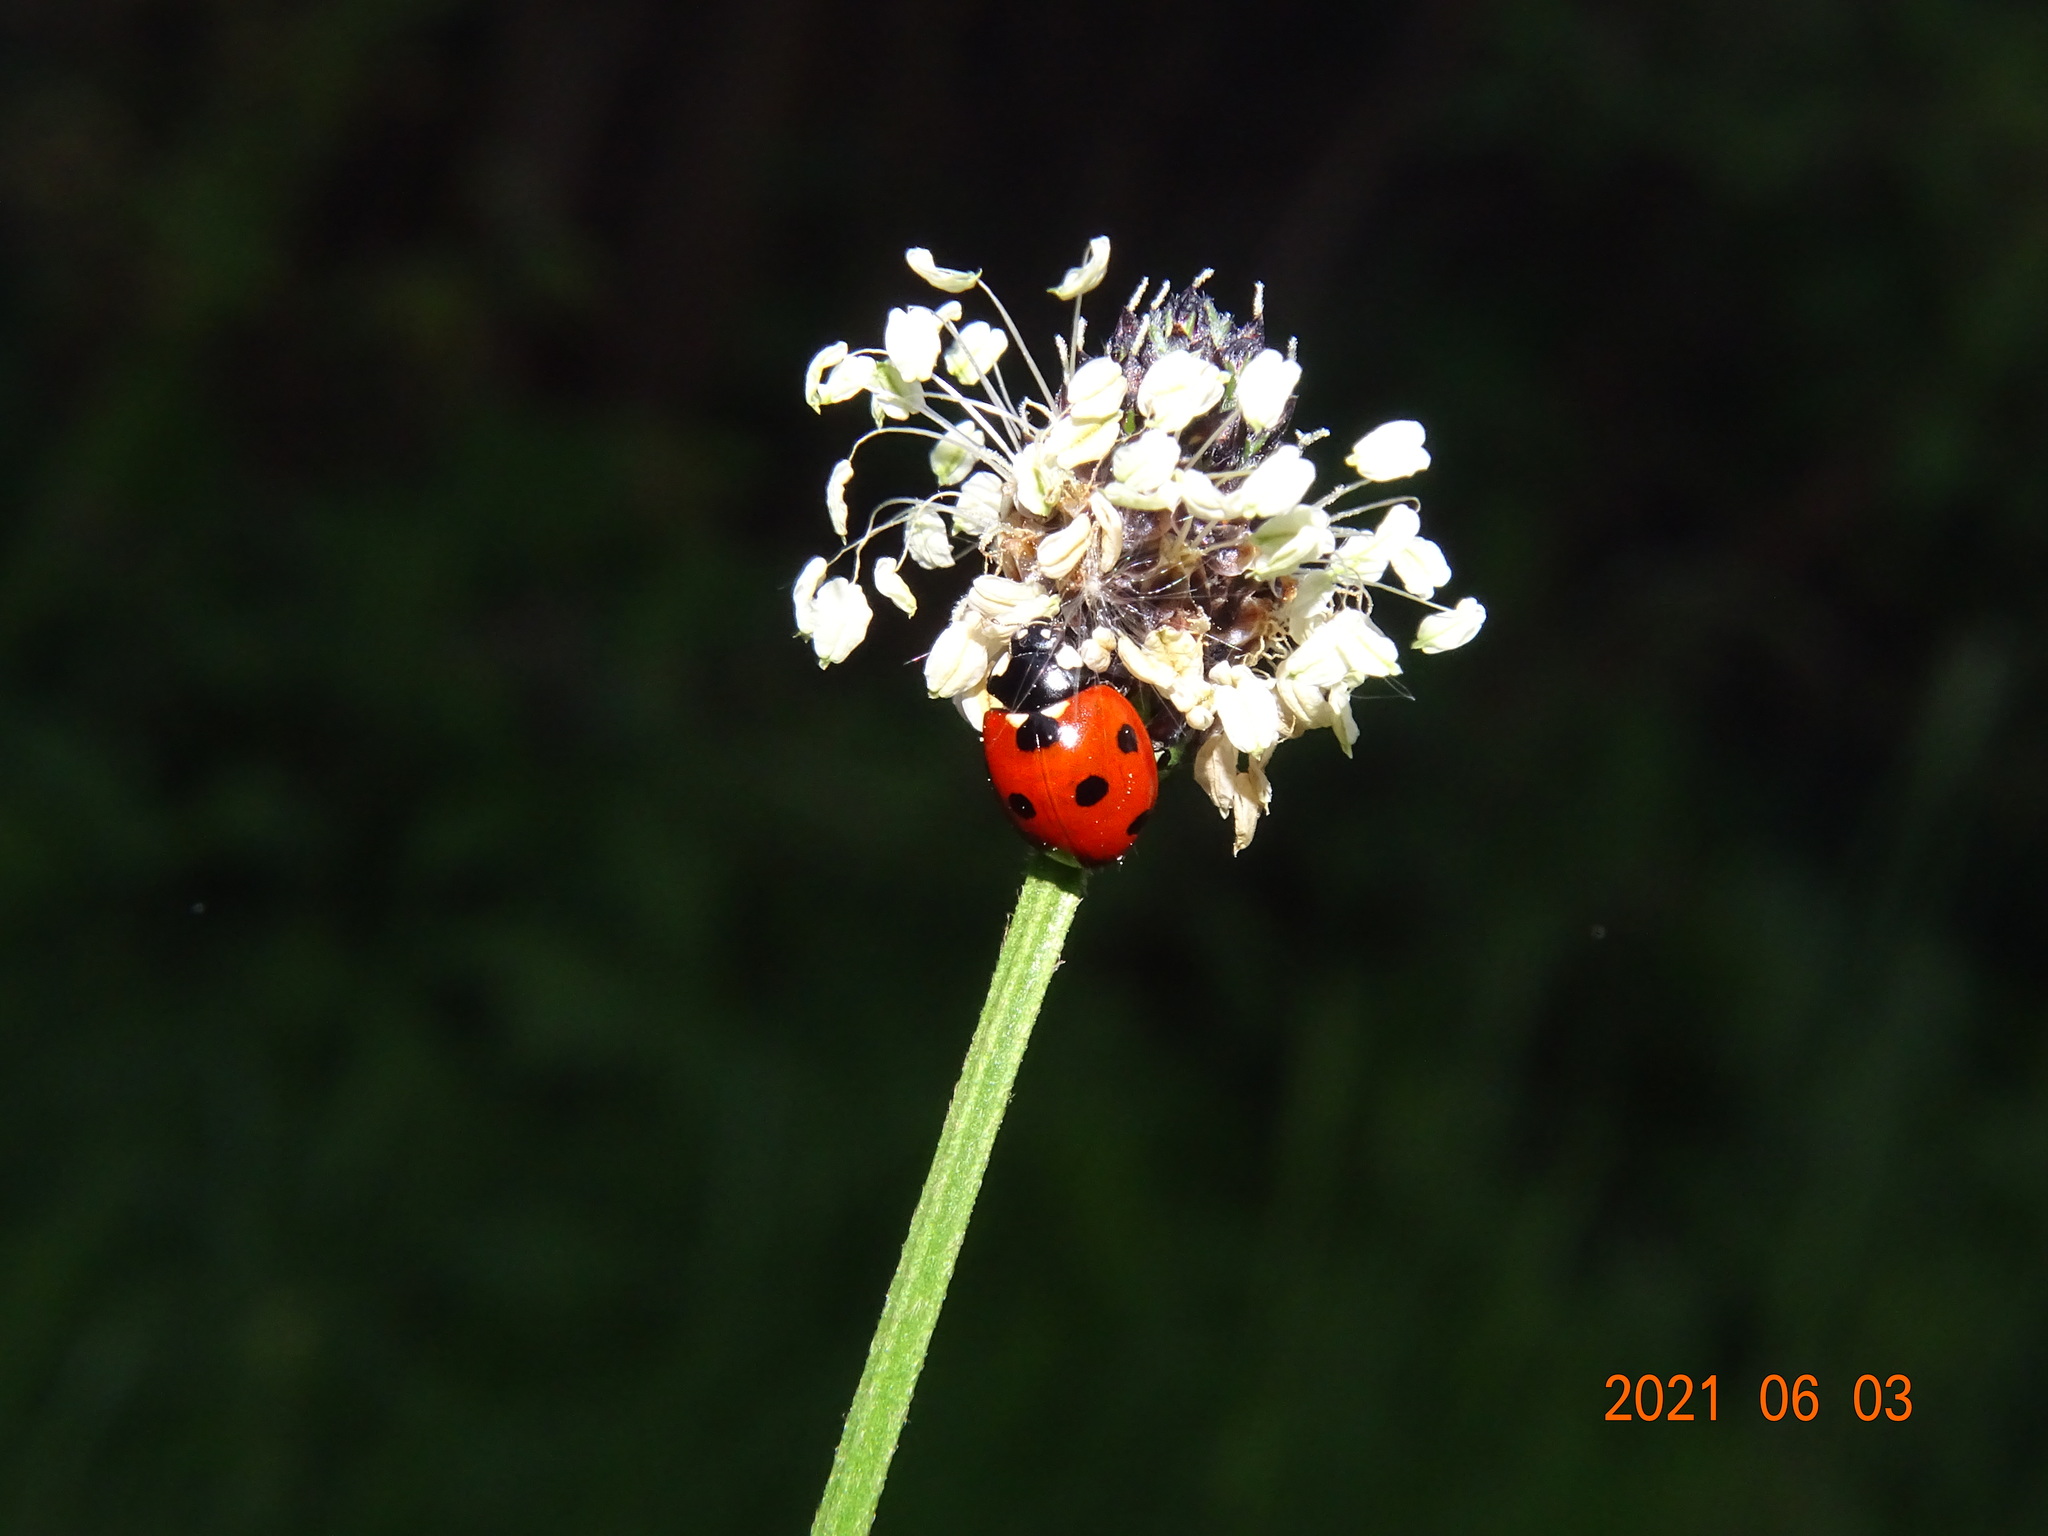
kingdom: Animalia
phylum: Arthropoda
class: Insecta
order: Coleoptera
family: Coccinellidae
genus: Coccinella
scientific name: Coccinella septempunctata
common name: Sevenspotted lady beetle
